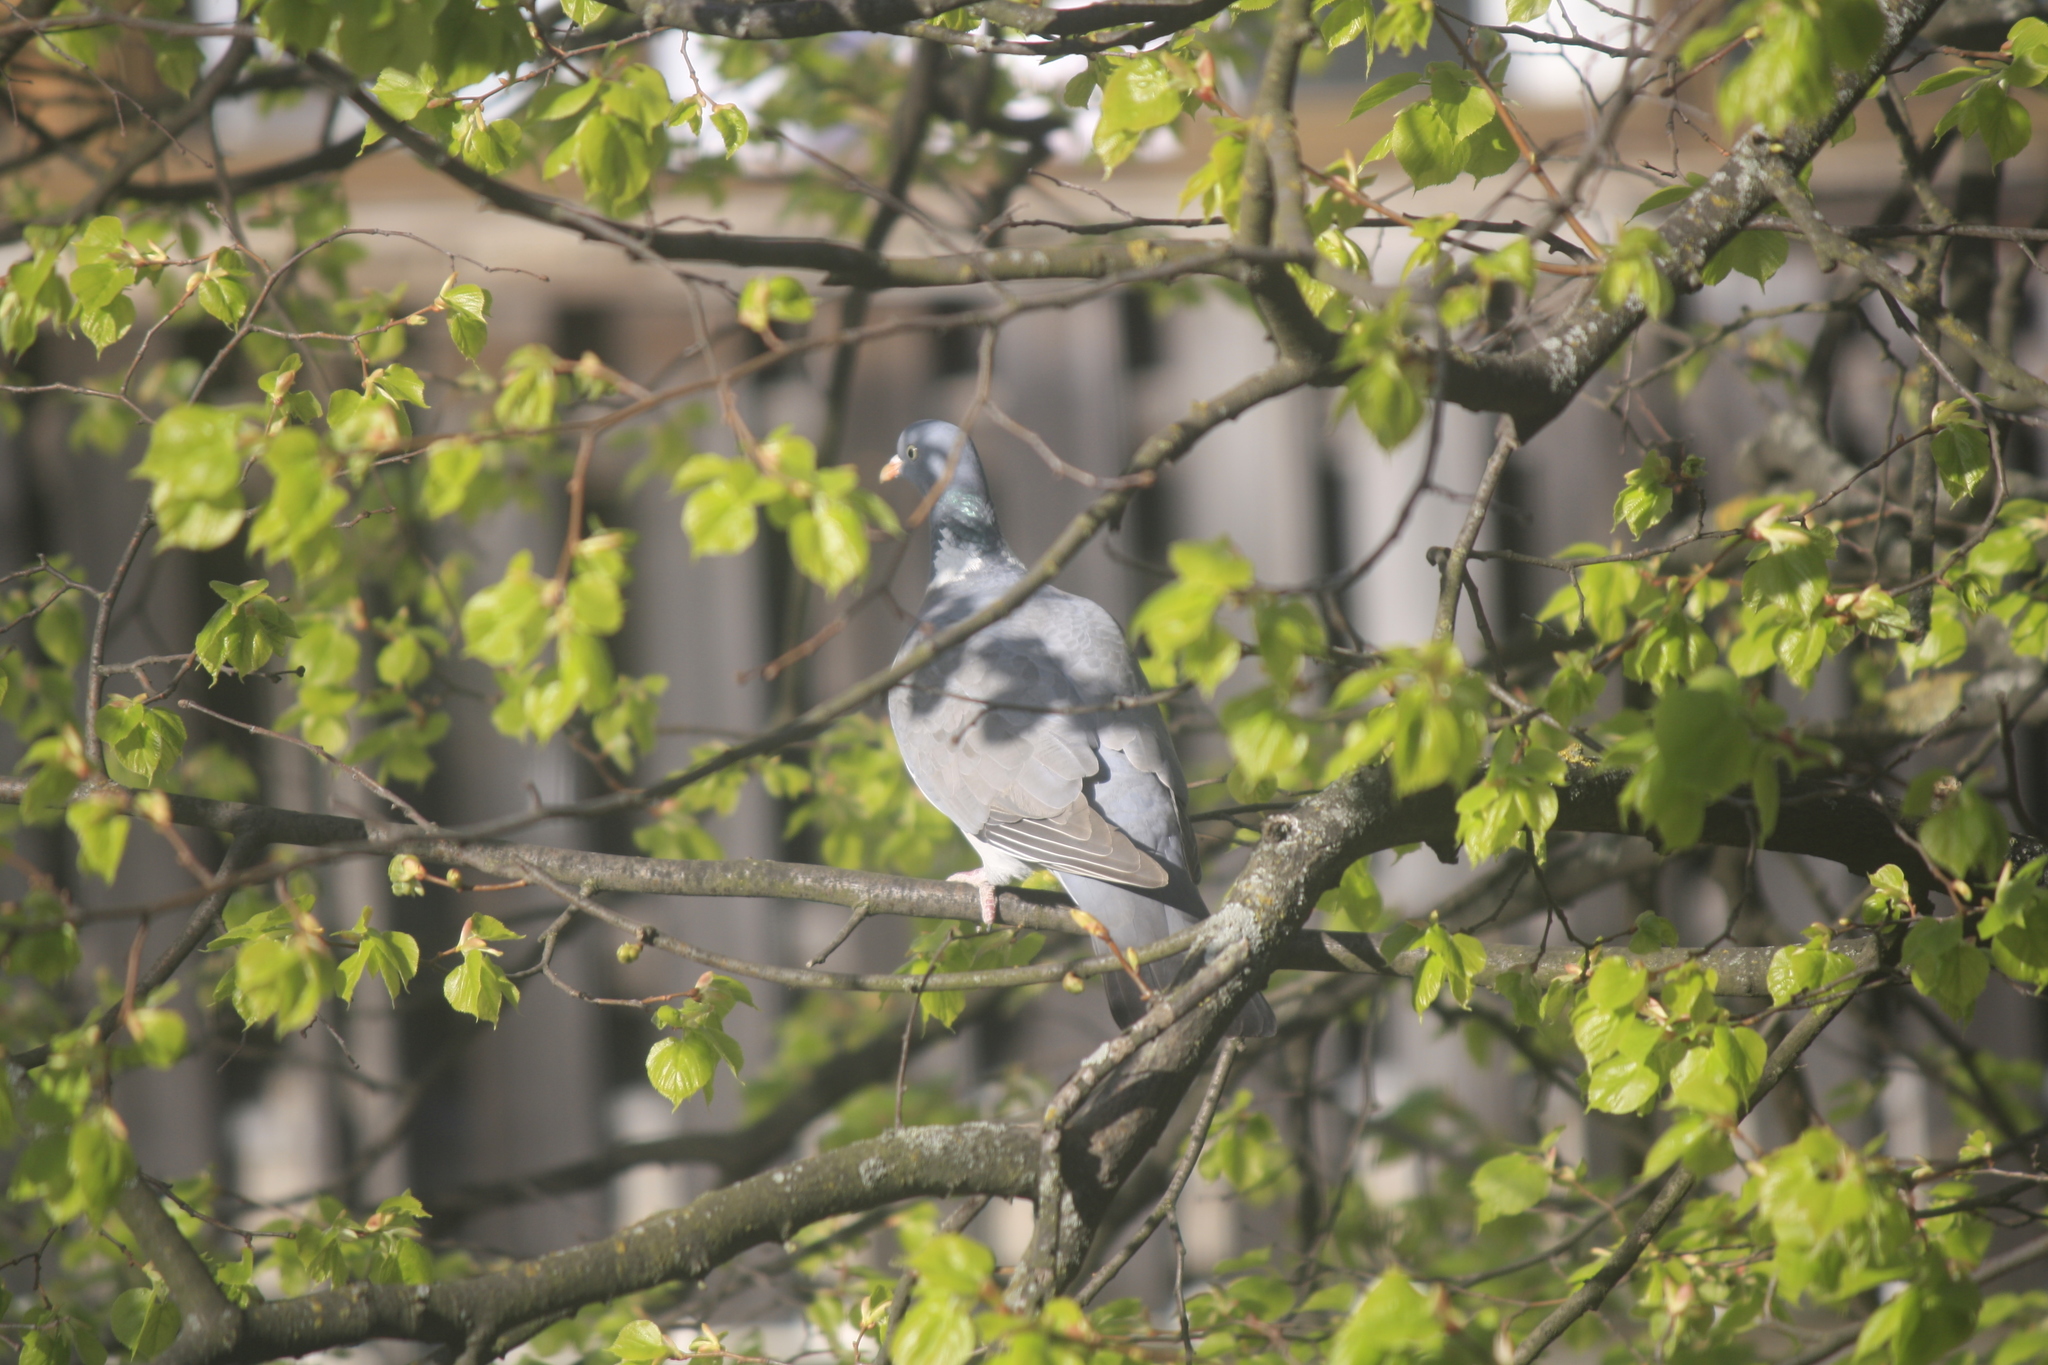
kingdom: Animalia
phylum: Chordata
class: Aves
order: Columbiformes
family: Columbidae
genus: Columba
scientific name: Columba palumbus
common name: Common wood pigeon
